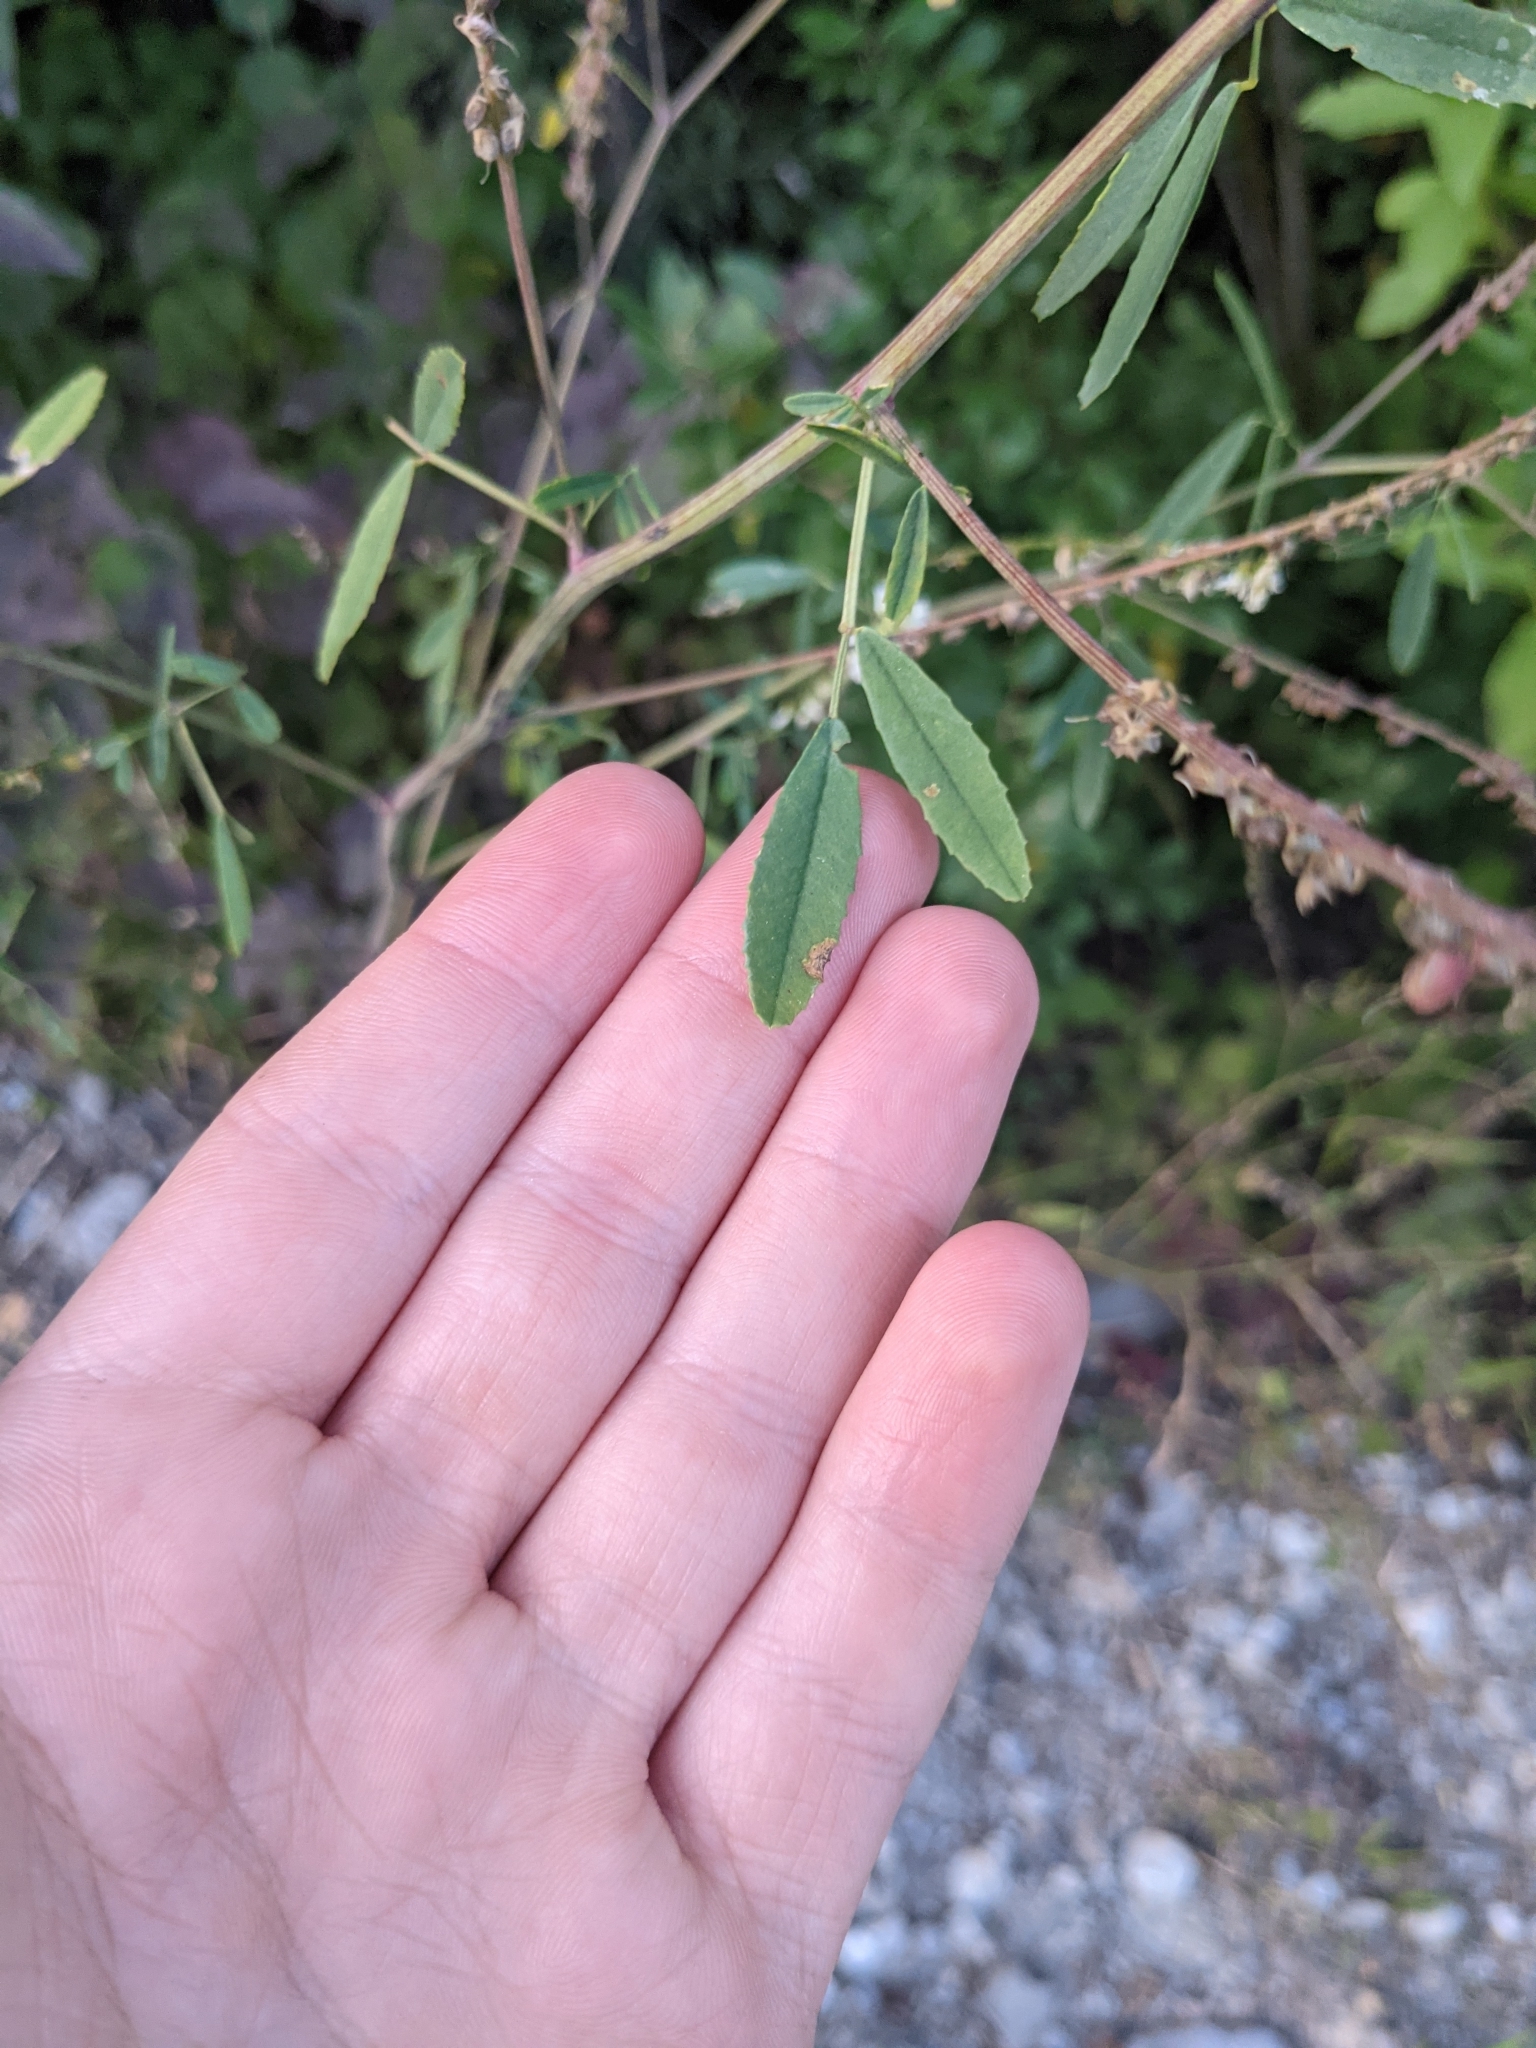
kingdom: Plantae
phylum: Tracheophyta
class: Magnoliopsida
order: Fabales
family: Fabaceae
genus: Melilotus
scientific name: Melilotus albus
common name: White melilot
